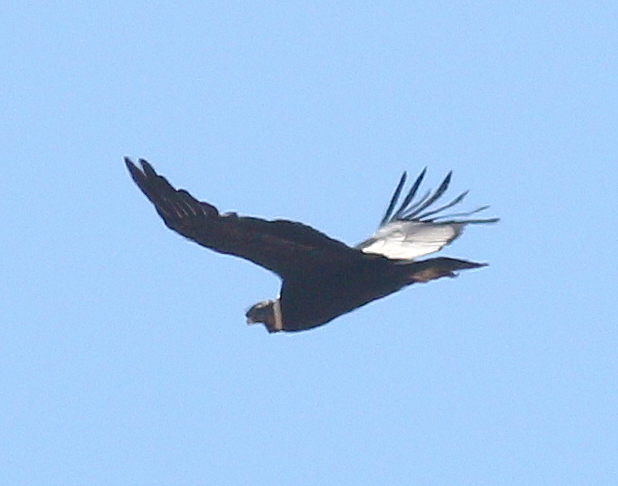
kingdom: Animalia
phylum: Chordata
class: Aves
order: Accipitriformes
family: Cathartidae
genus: Vultur
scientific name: Vultur gryphus
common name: Andean condor
